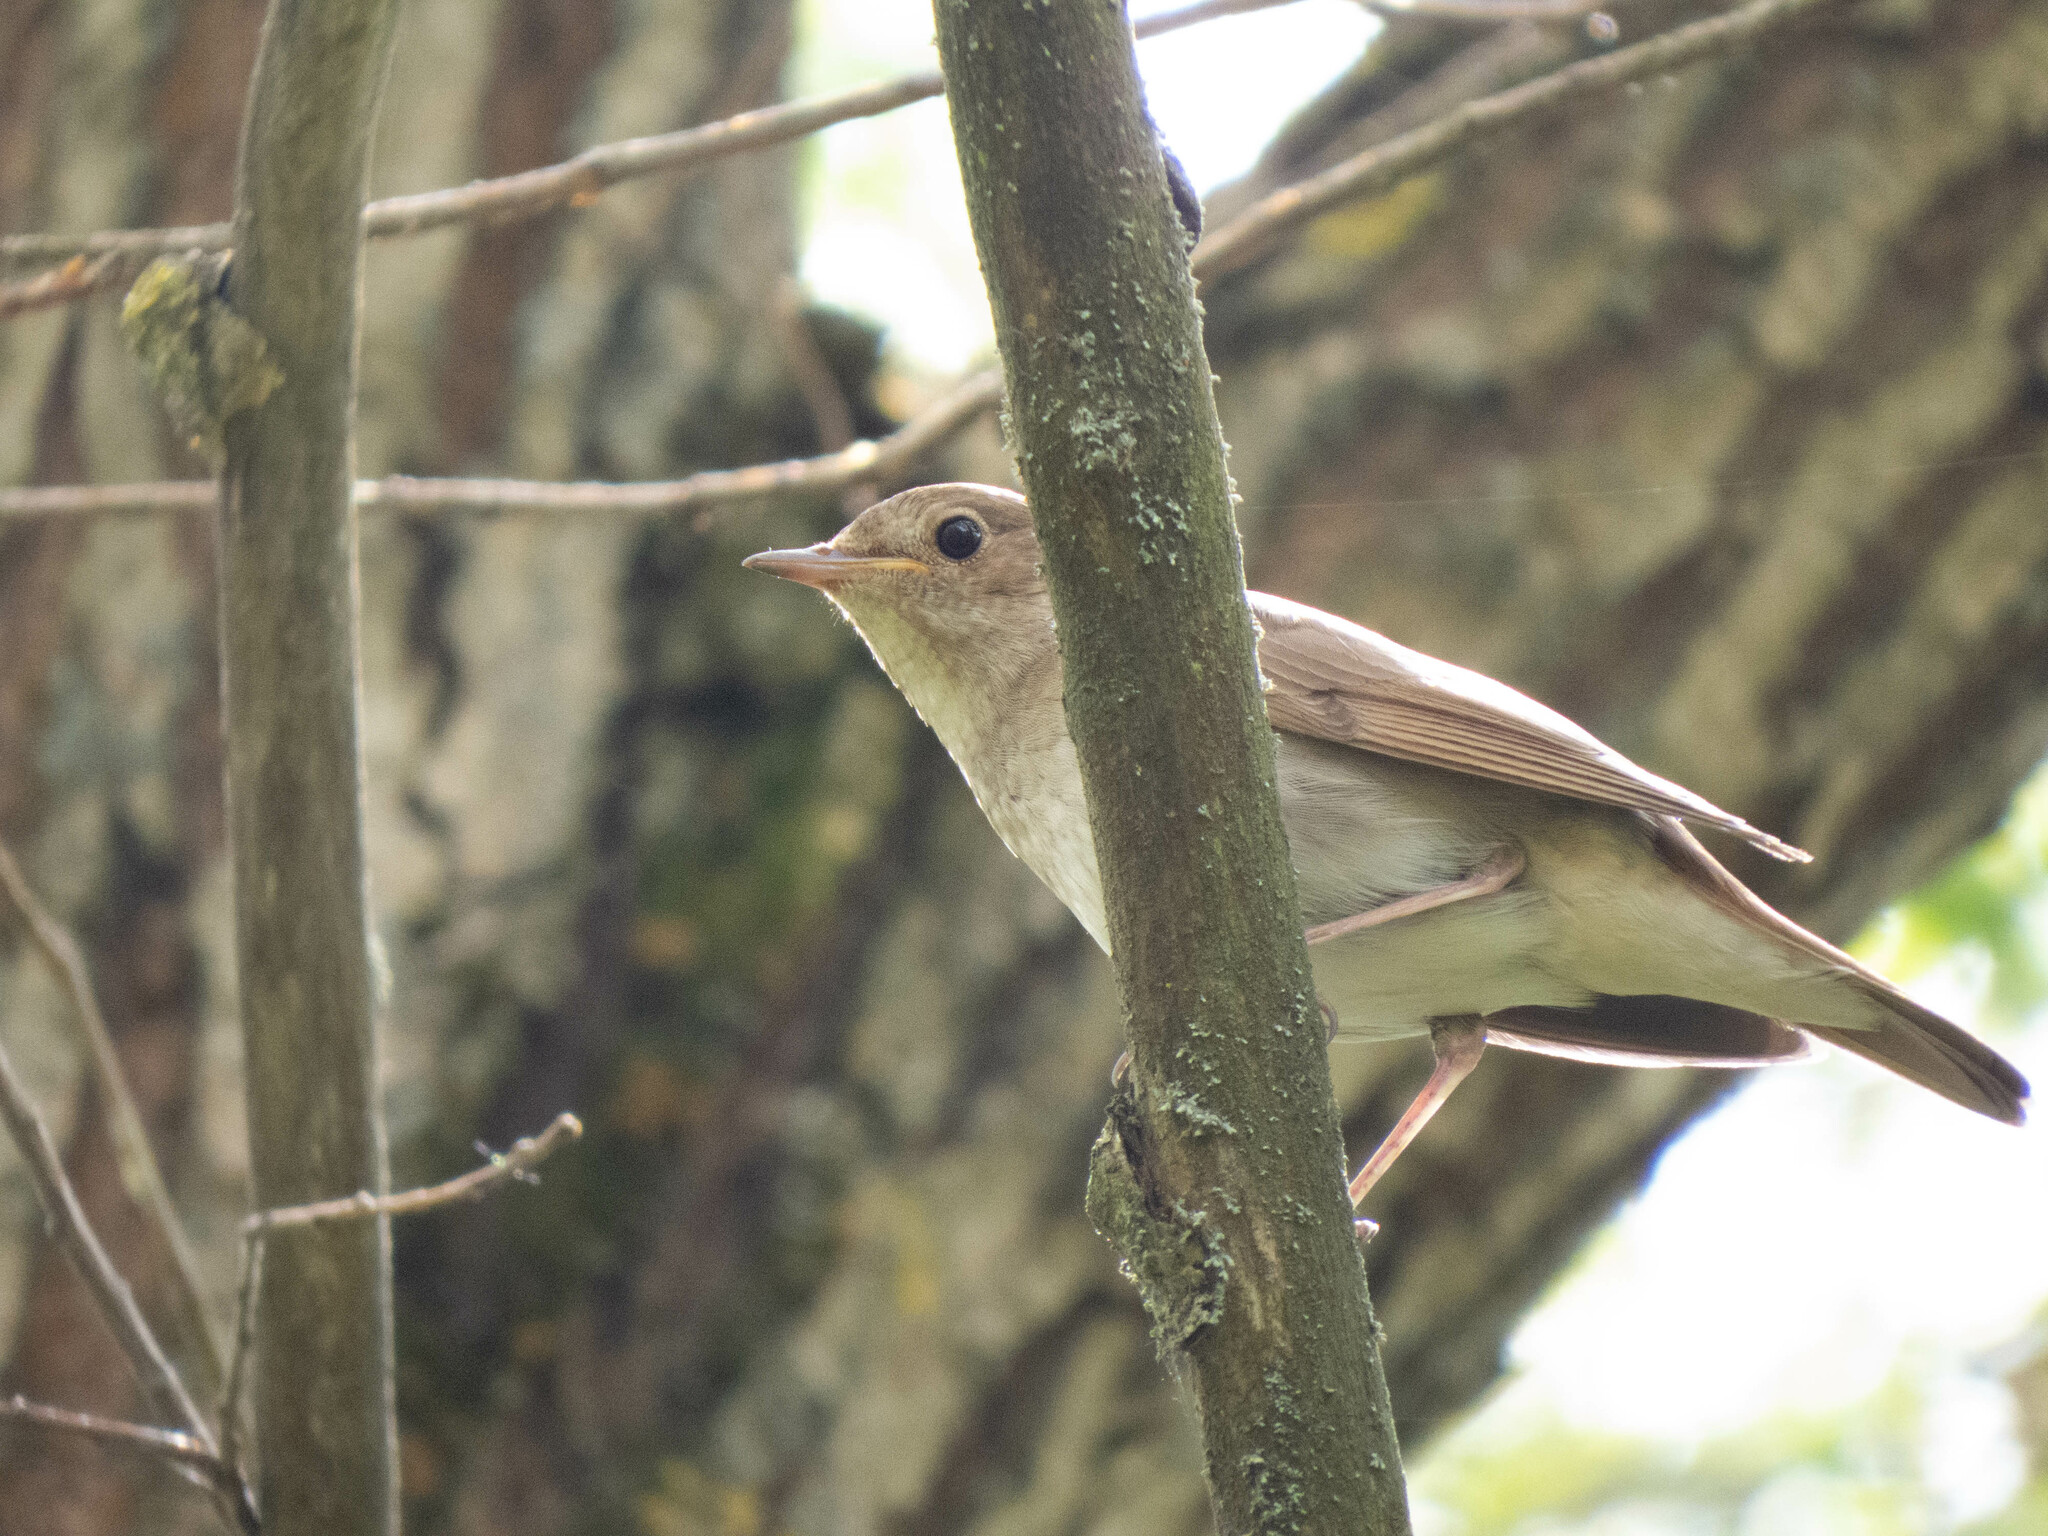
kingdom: Animalia
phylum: Chordata
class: Aves
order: Passeriformes
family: Muscicapidae
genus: Luscinia
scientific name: Luscinia luscinia
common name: Thrush nightingale
